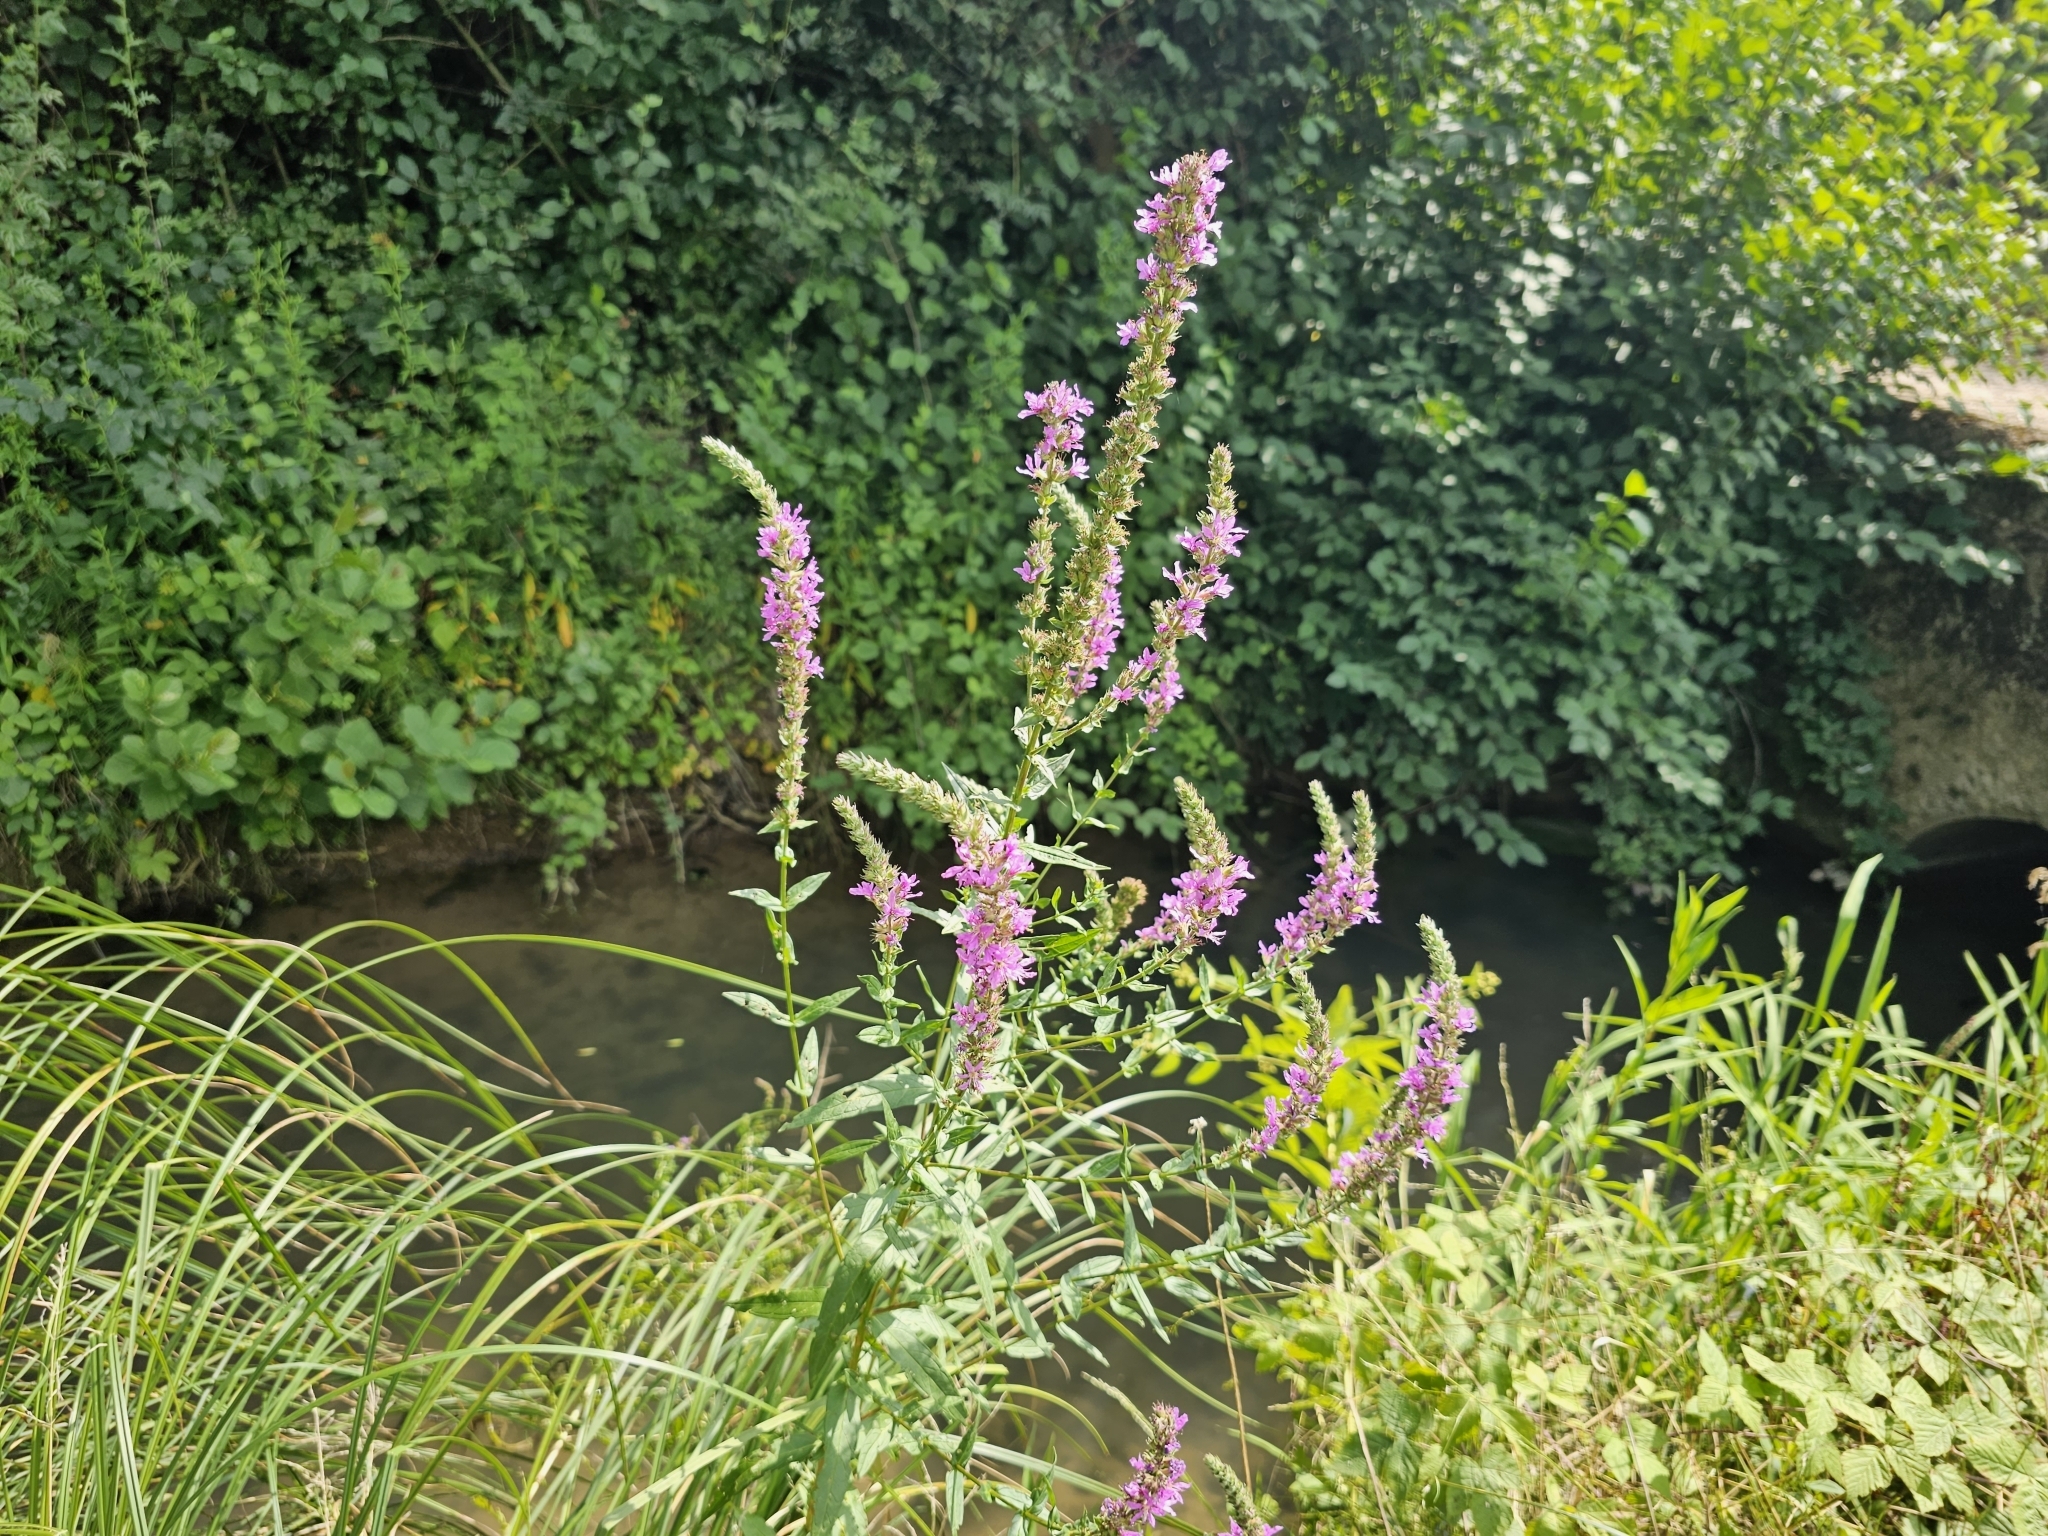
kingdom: Plantae
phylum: Tracheophyta
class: Magnoliopsida
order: Myrtales
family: Lythraceae
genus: Lythrum
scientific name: Lythrum salicaria
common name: Purple loosestrife
